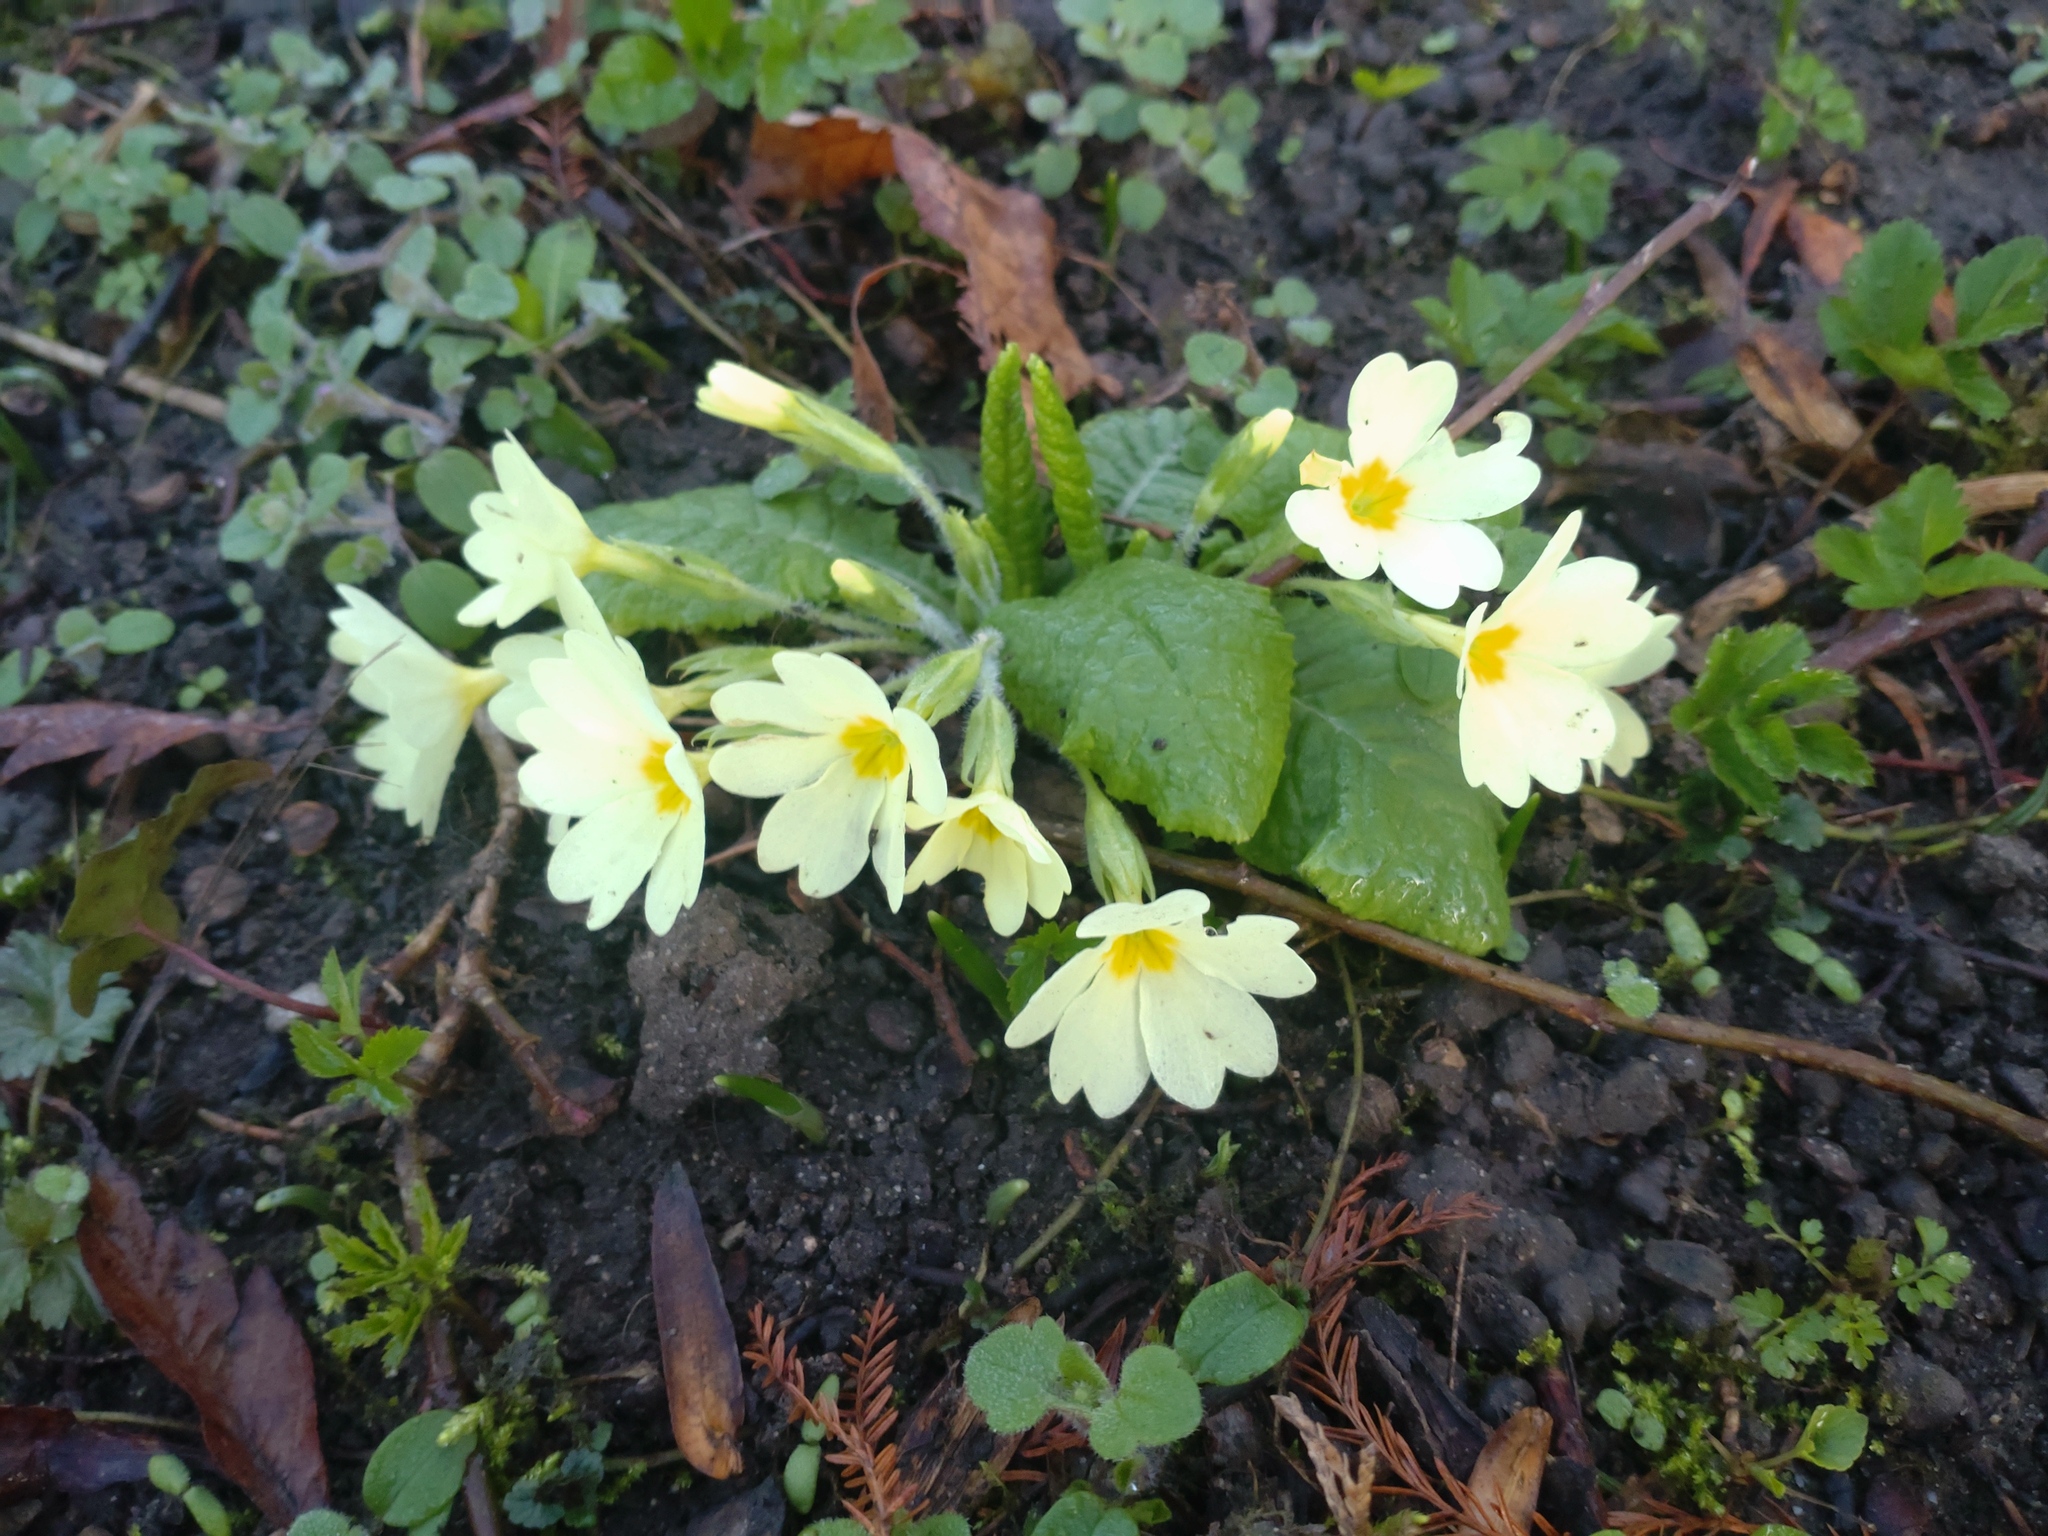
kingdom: Plantae
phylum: Tracheophyta
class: Magnoliopsida
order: Ericales
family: Primulaceae
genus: Primula
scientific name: Primula vulgaris
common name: Primrose
